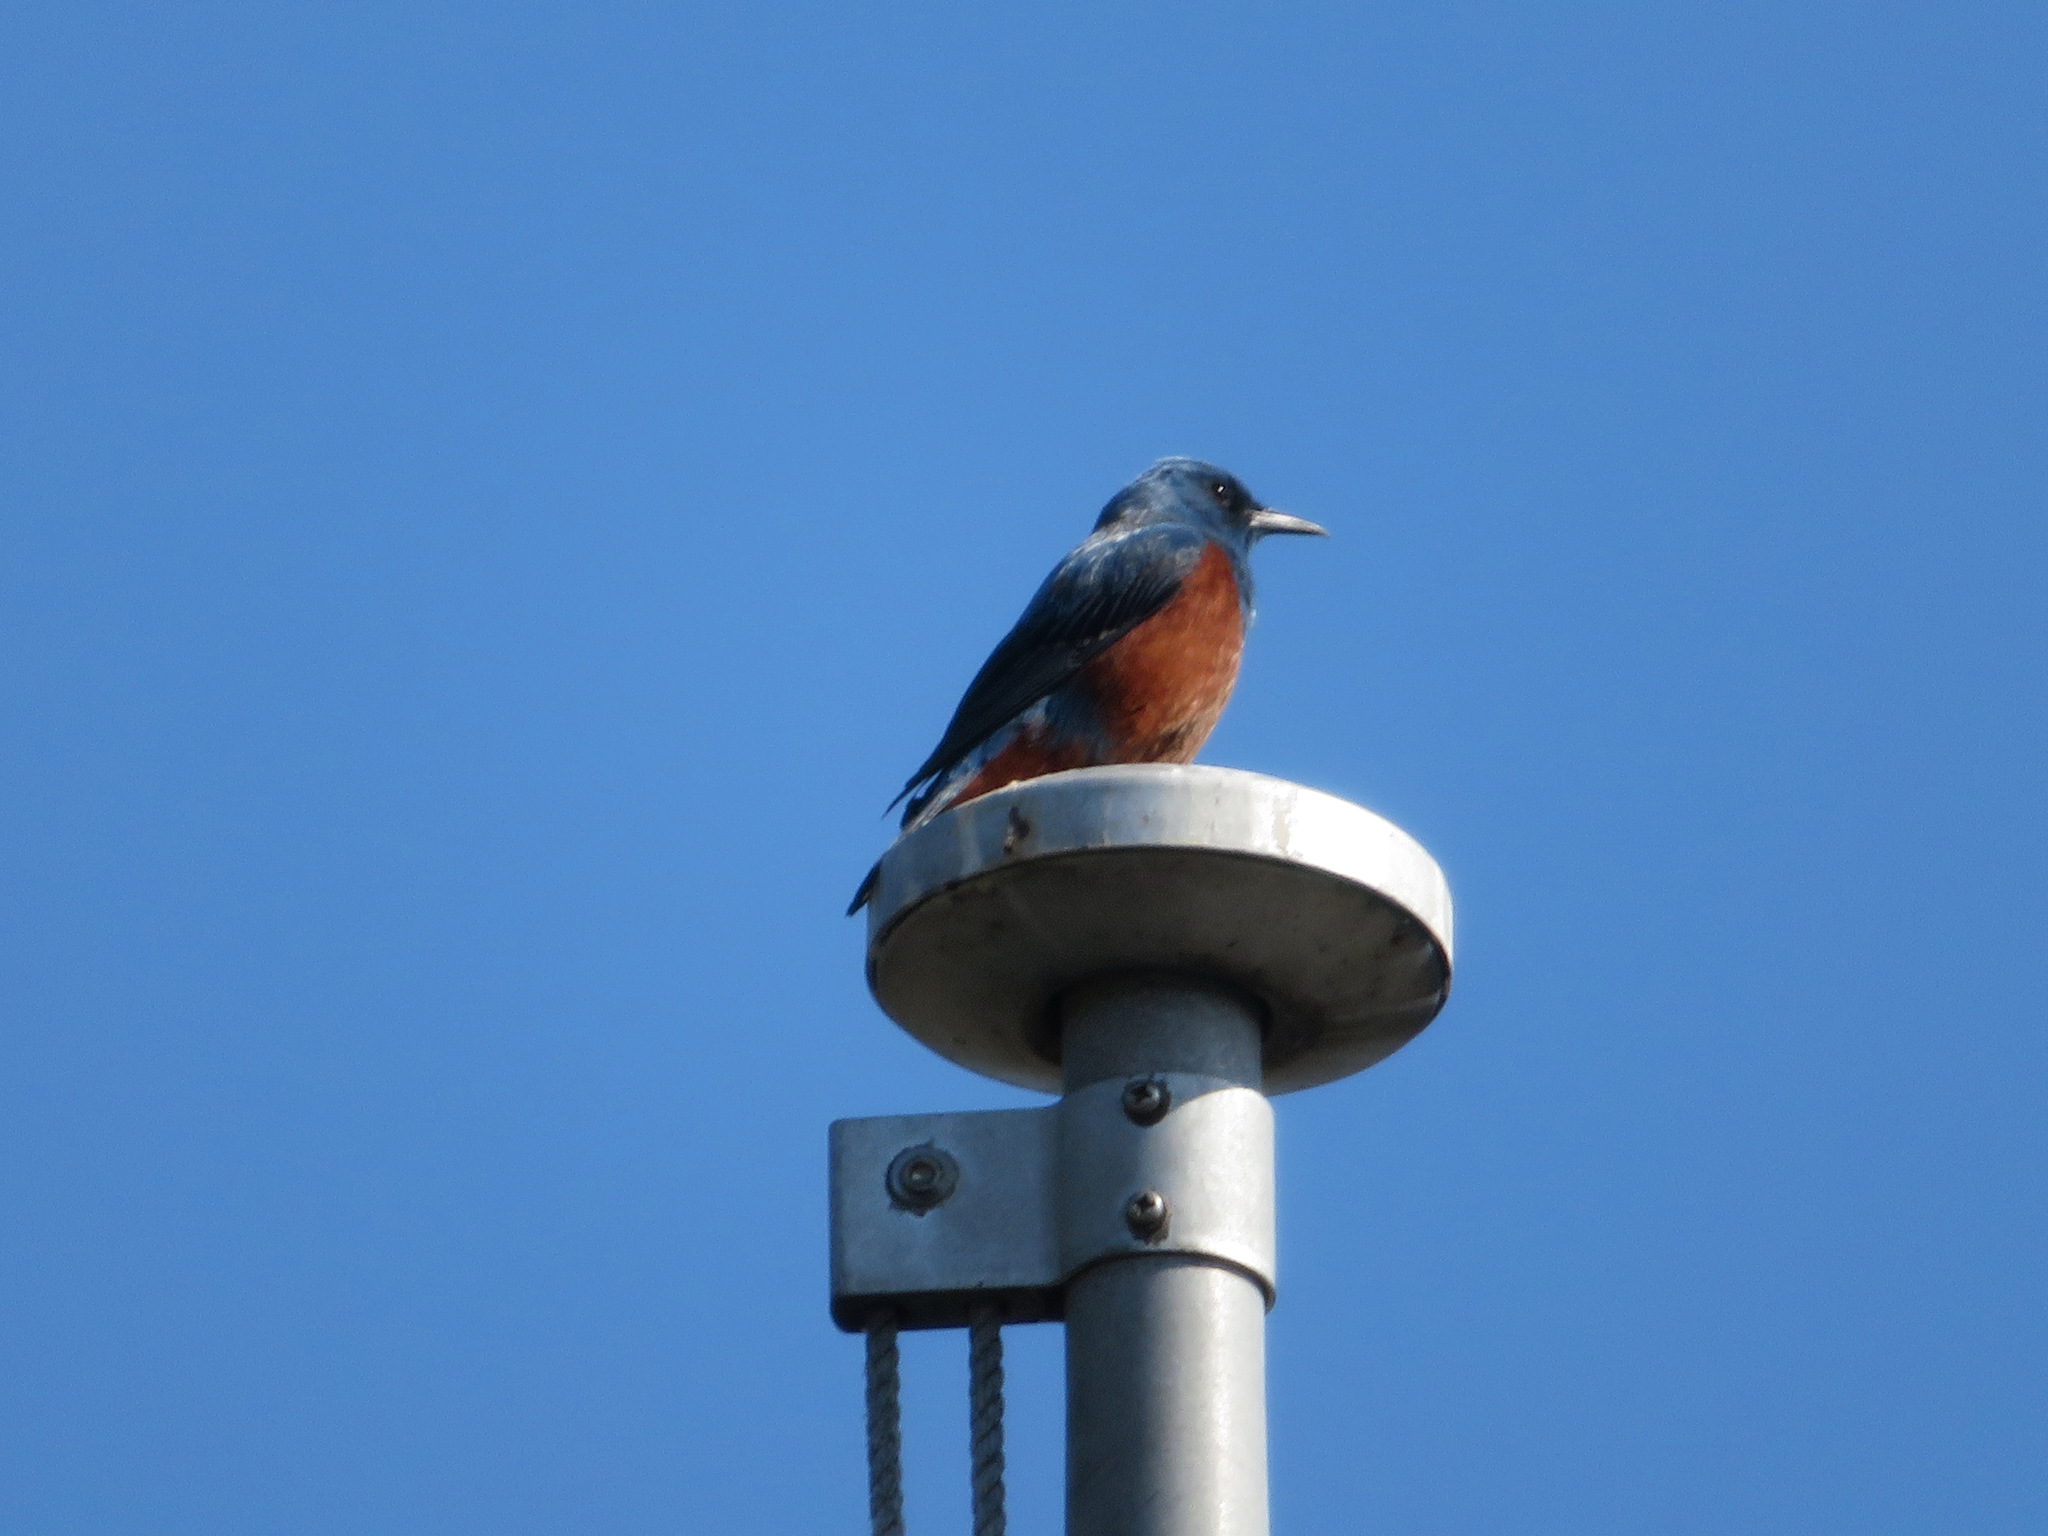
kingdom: Animalia
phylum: Chordata
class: Aves
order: Passeriformes
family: Muscicapidae
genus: Monticola
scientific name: Monticola solitarius
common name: Blue rock thrush
